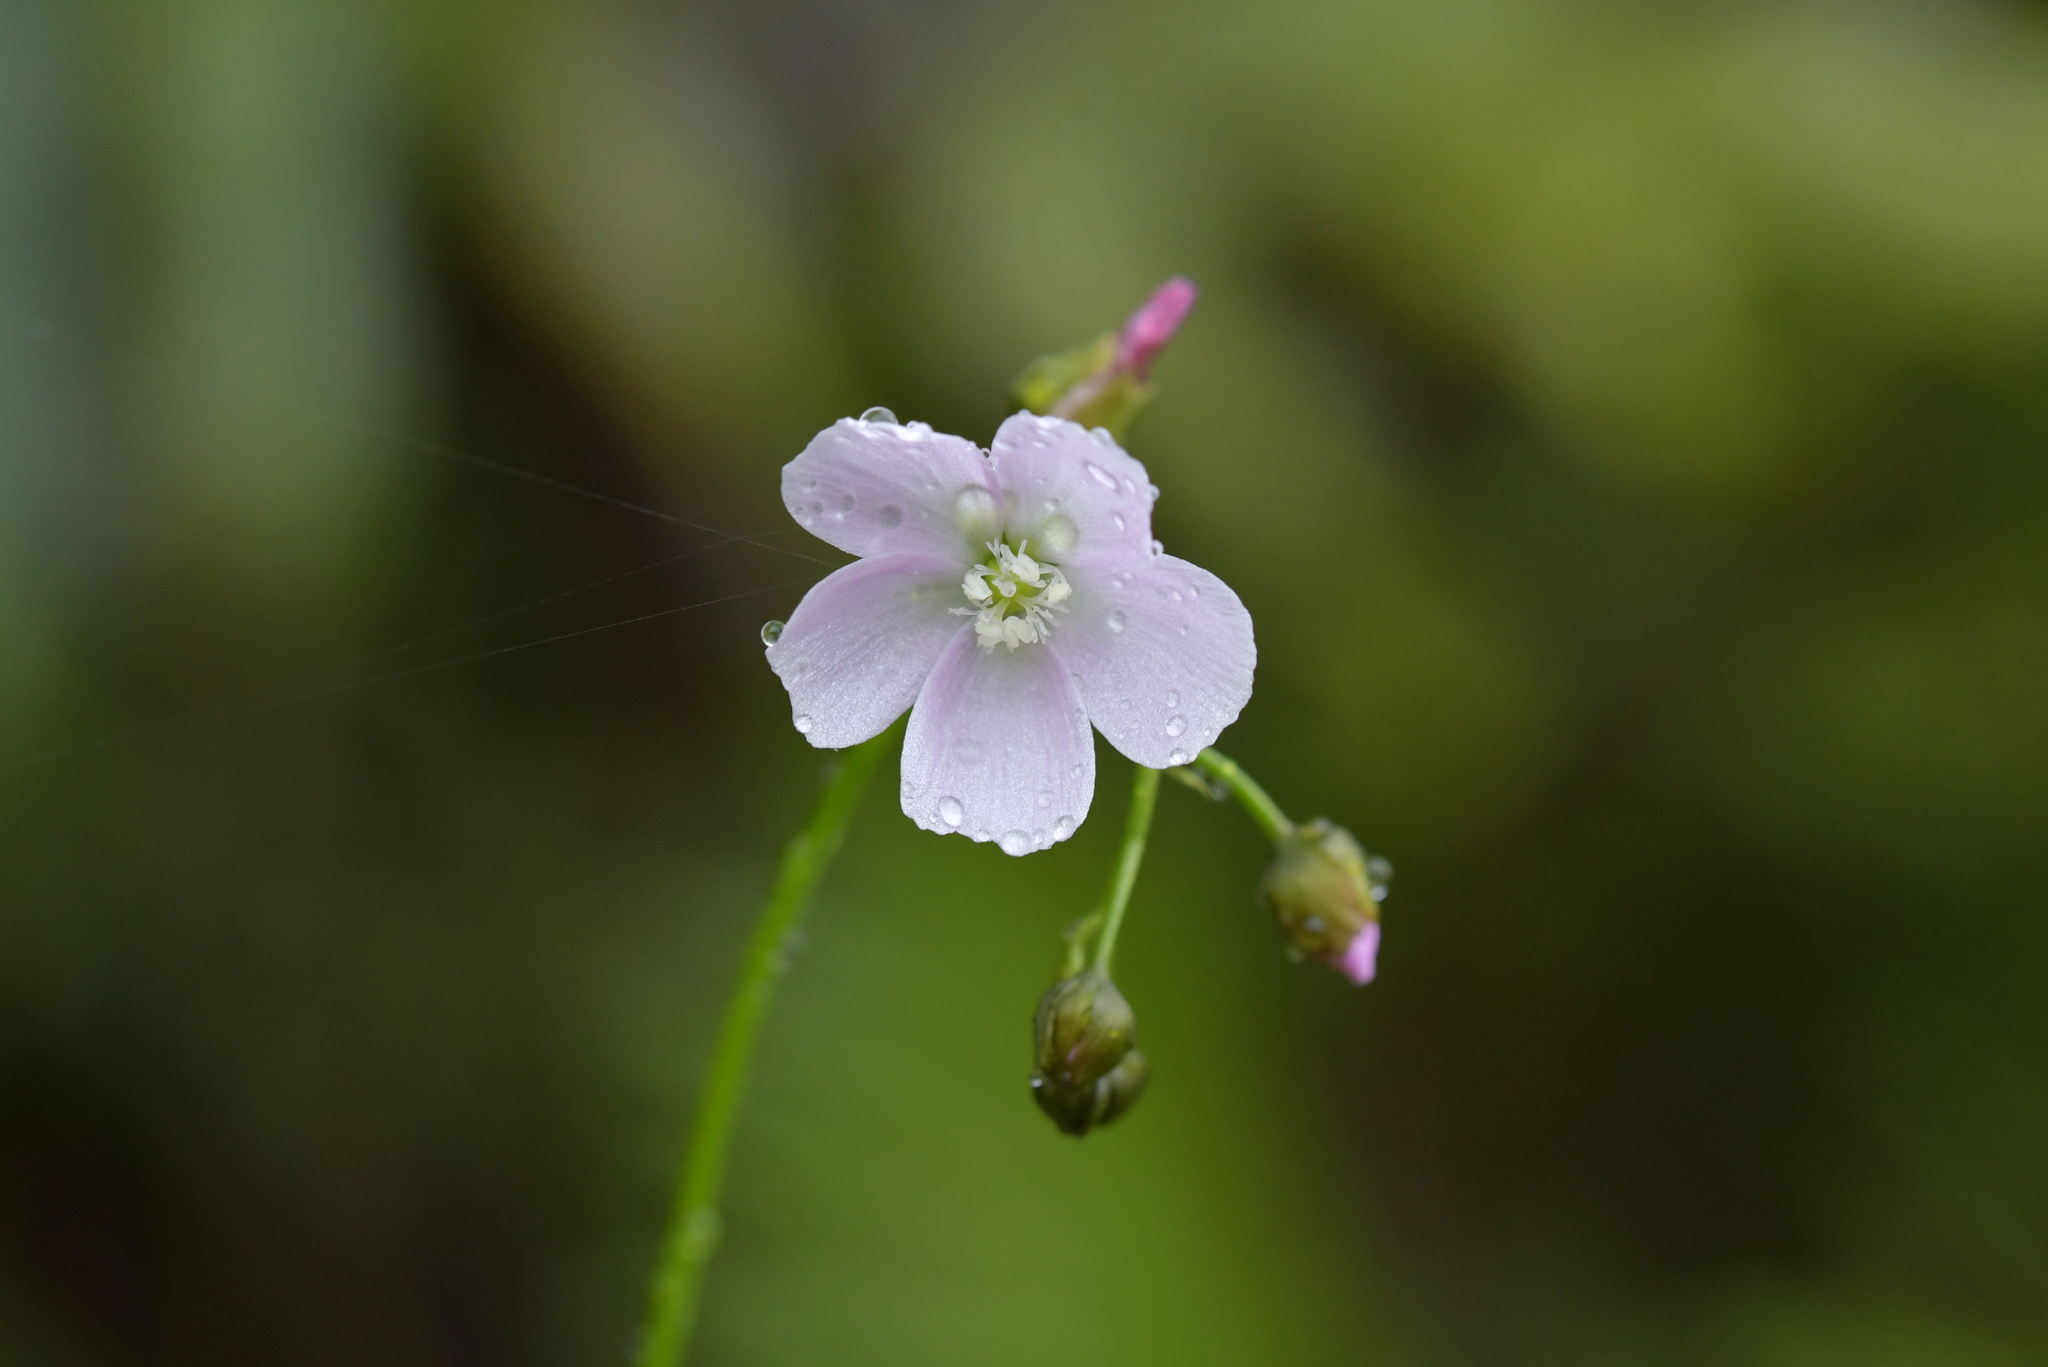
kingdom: Plantae
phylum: Tracheophyta
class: Magnoliopsida
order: Caryophyllales
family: Droseraceae
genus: Drosera
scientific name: Drosera peltata
